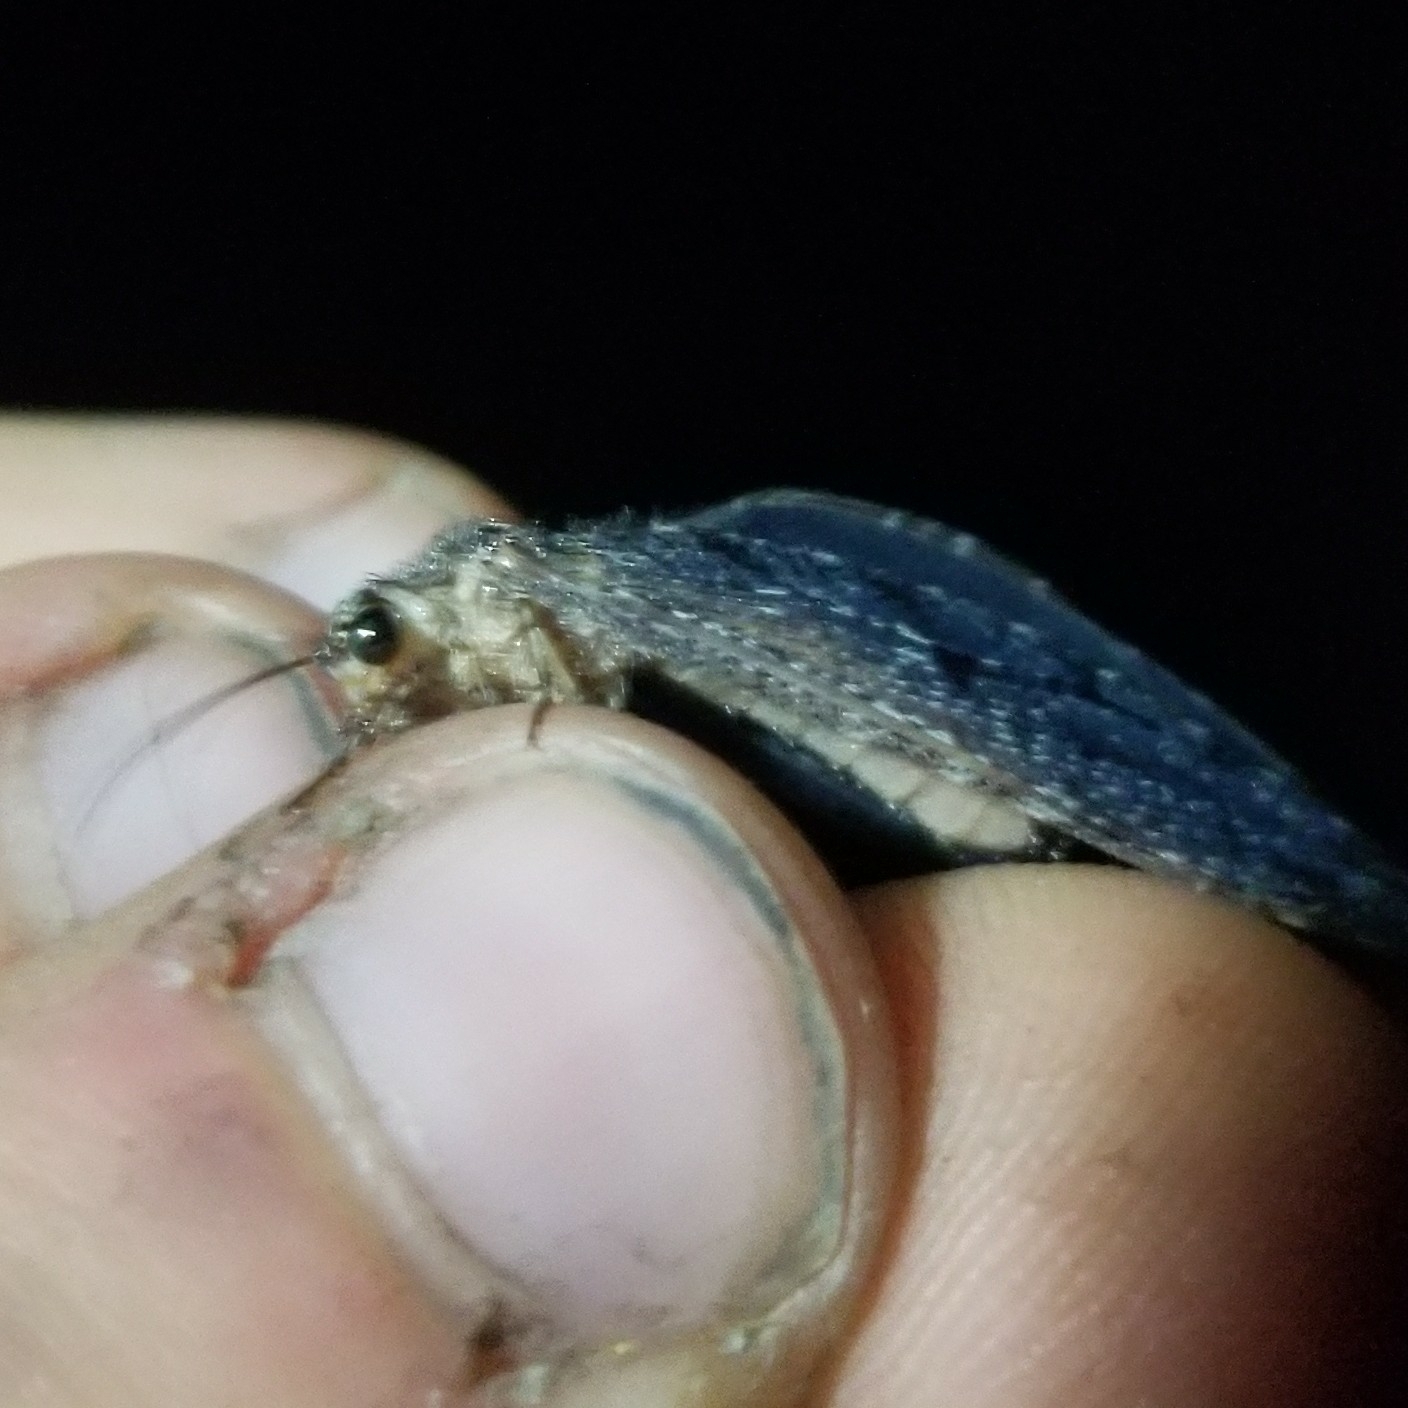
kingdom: Animalia
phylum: Arthropoda
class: Insecta
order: Neuroptera
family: Ithonidae
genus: Polystoechotes
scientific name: Polystoechotes punctata
